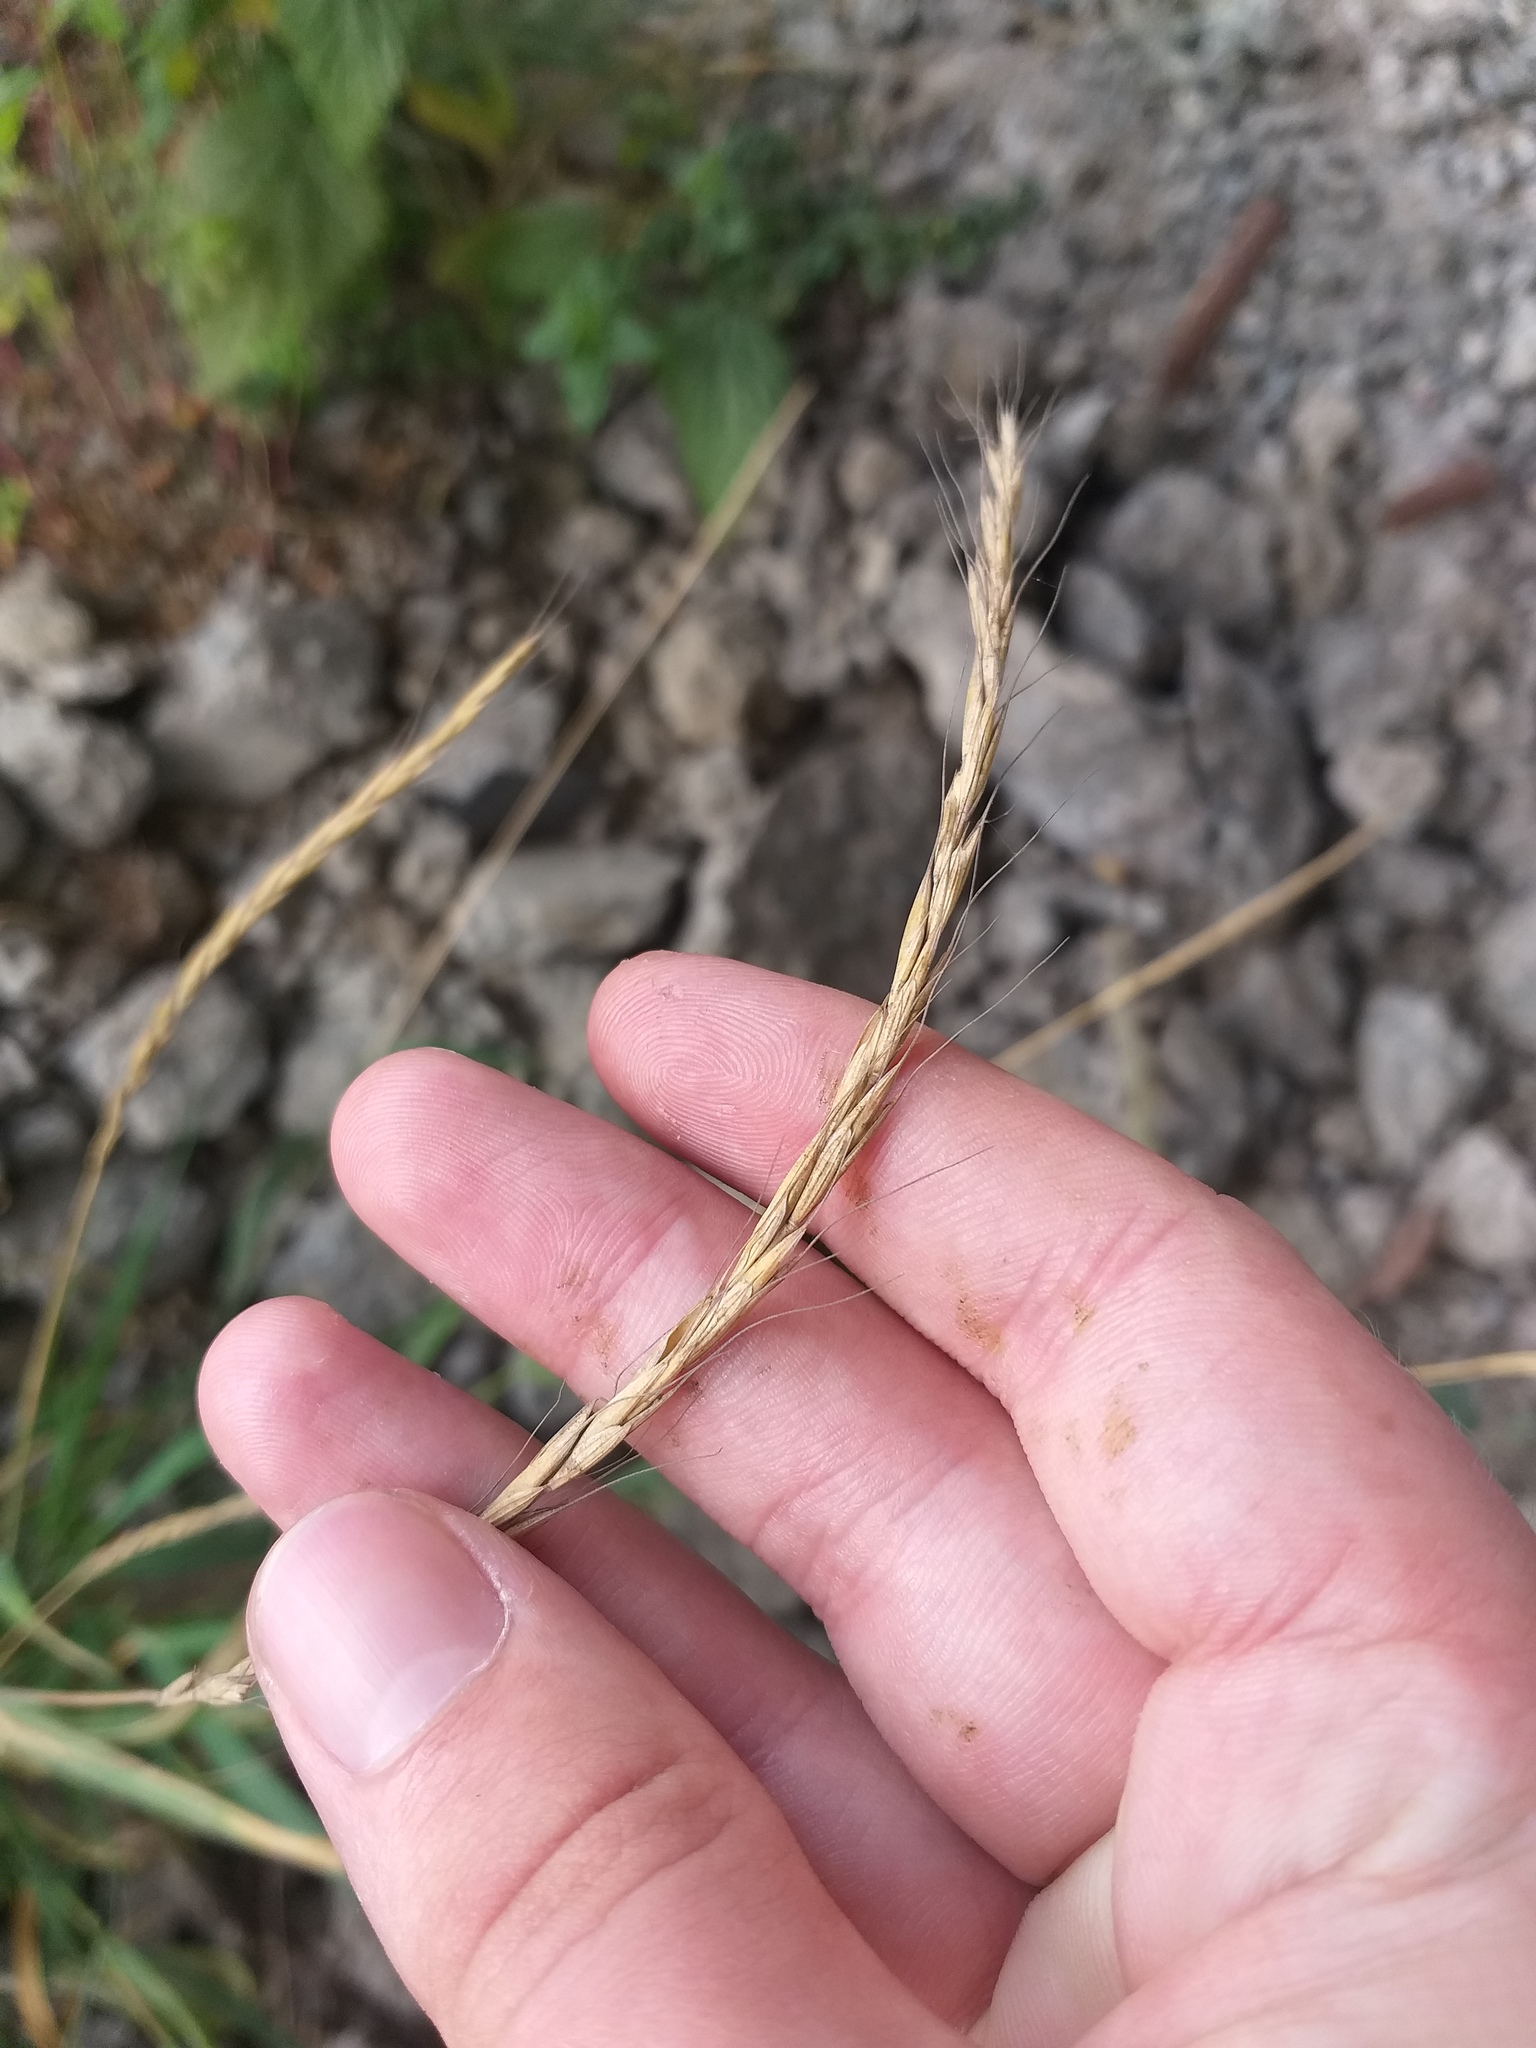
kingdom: Plantae
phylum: Tracheophyta
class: Liliopsida
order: Poales
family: Poaceae
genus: Elymus
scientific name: Elymus caninus
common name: Bearded couch
